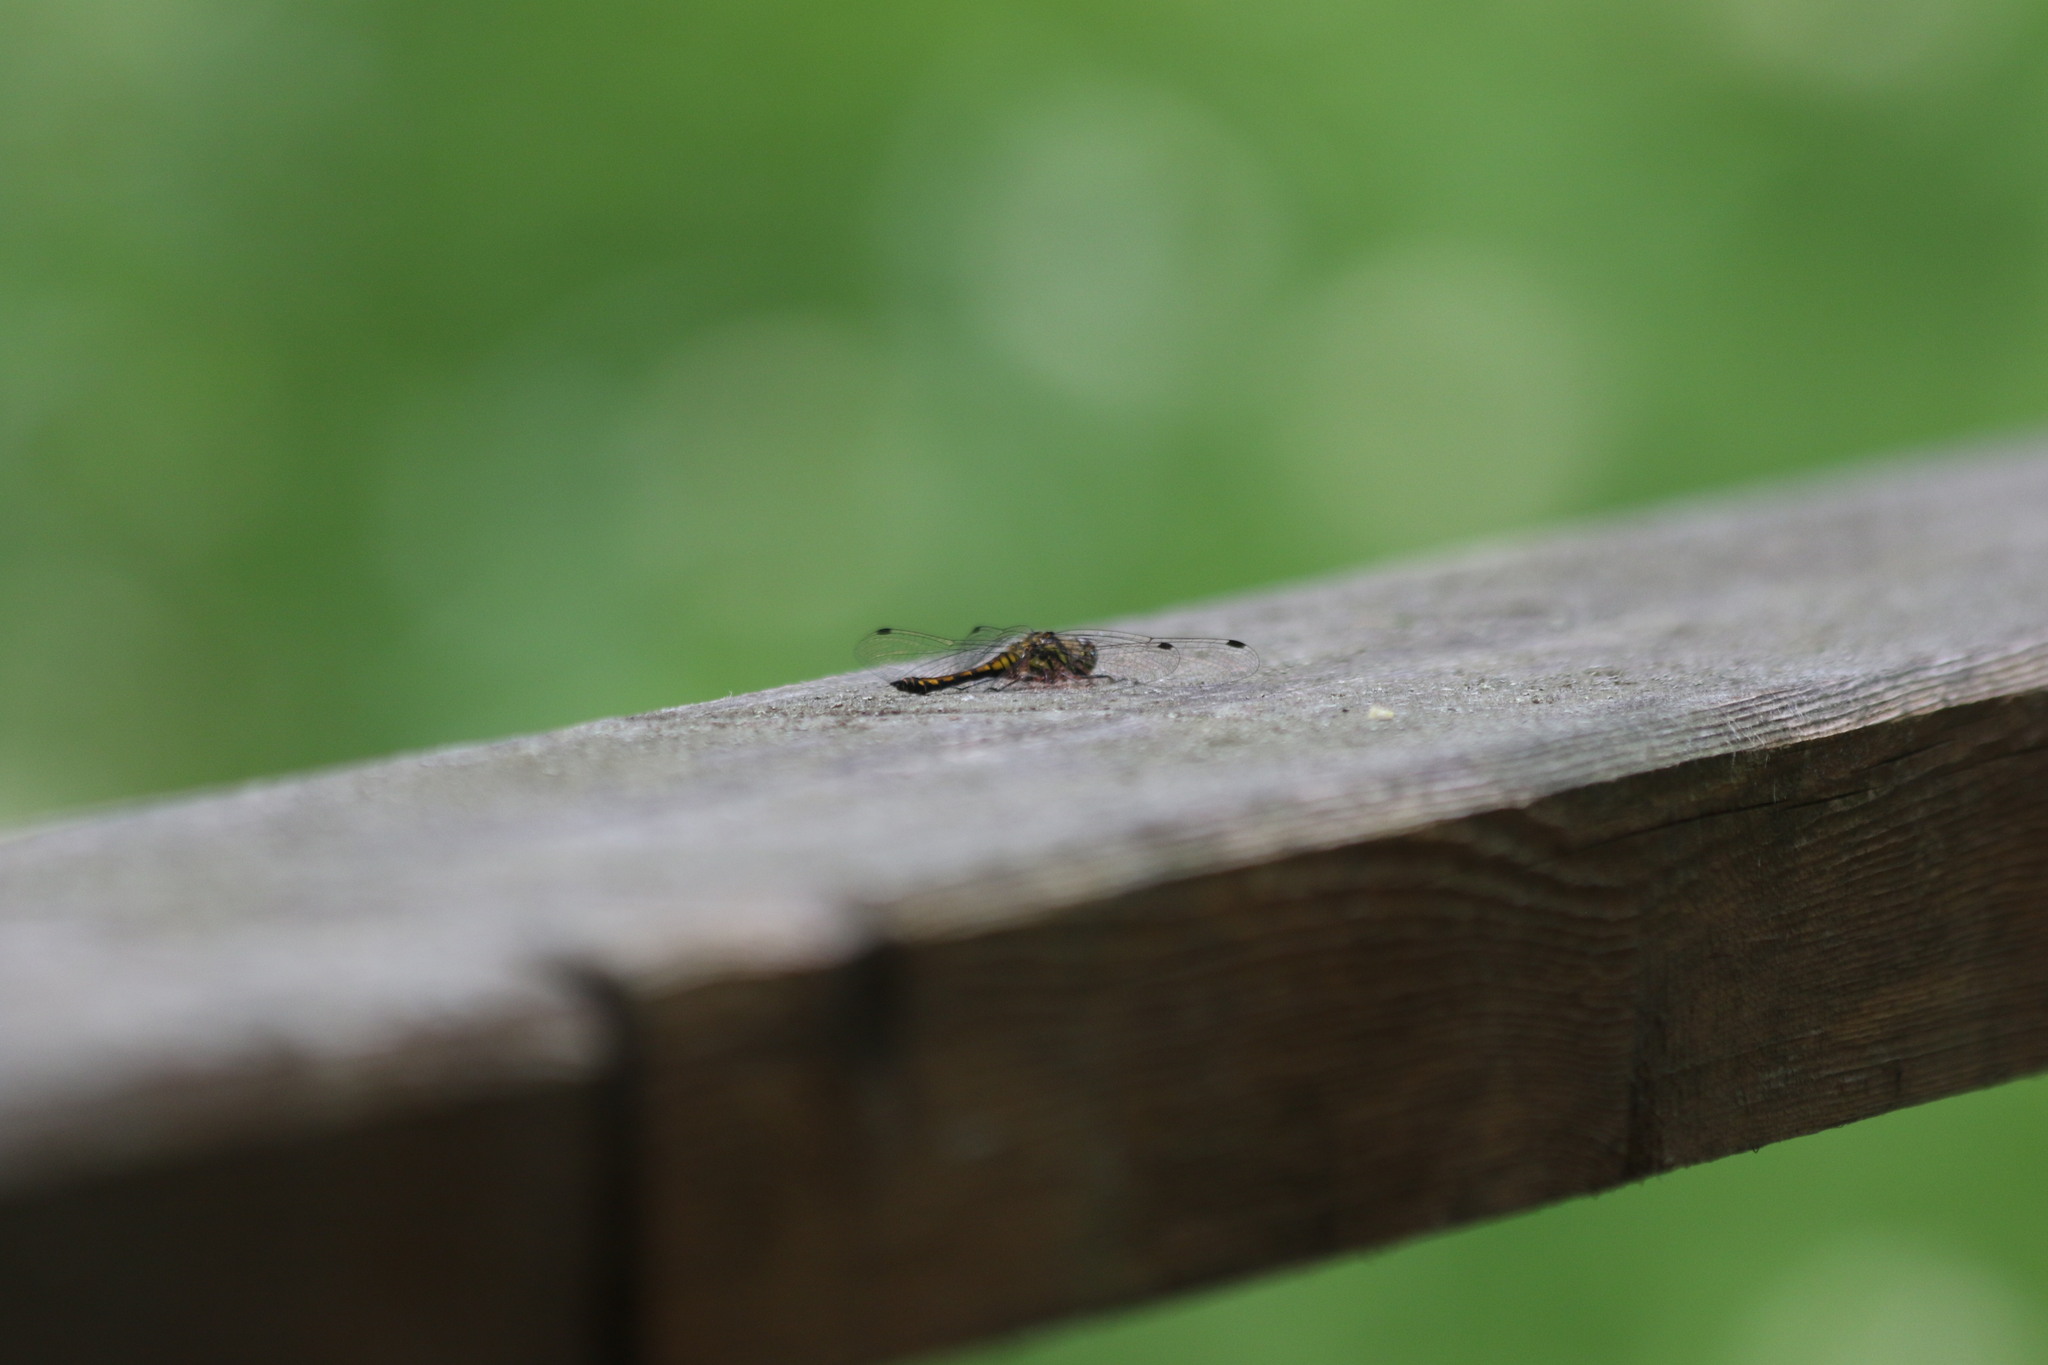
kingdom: Animalia
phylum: Arthropoda
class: Insecta
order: Odonata
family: Libellulidae
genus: Sympetrum
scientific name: Sympetrum danae
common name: Black darter
